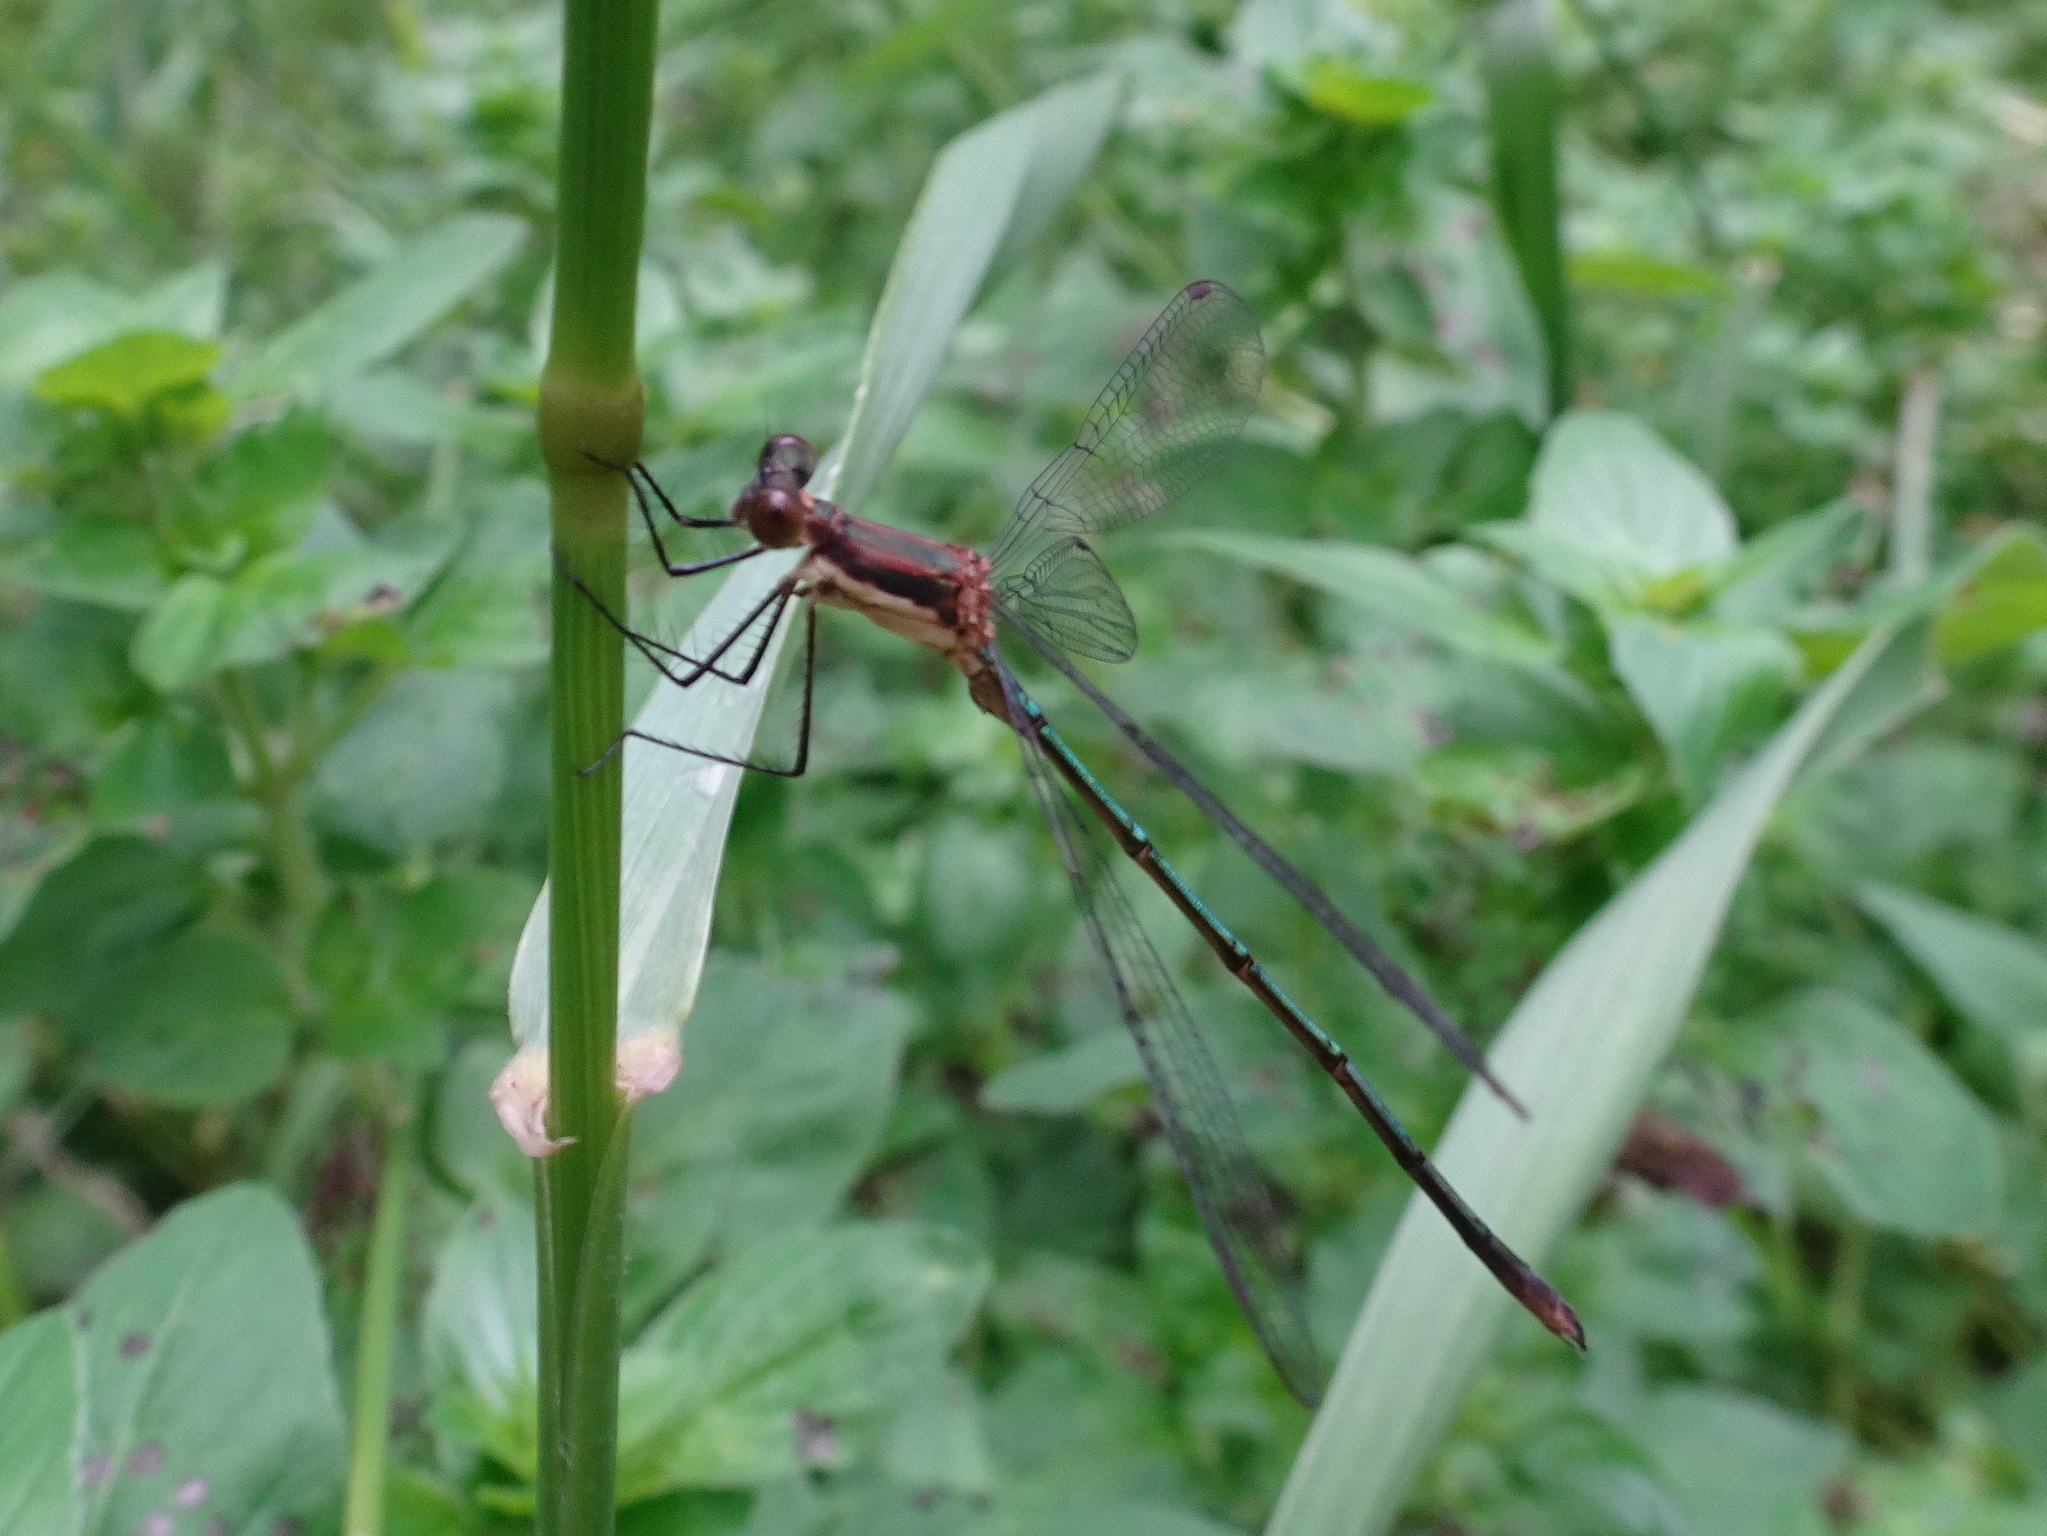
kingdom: Animalia
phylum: Arthropoda
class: Insecta
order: Odonata
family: Lestidae
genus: Lestes
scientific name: Lestes vigilax
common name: Swamp spreadwing
